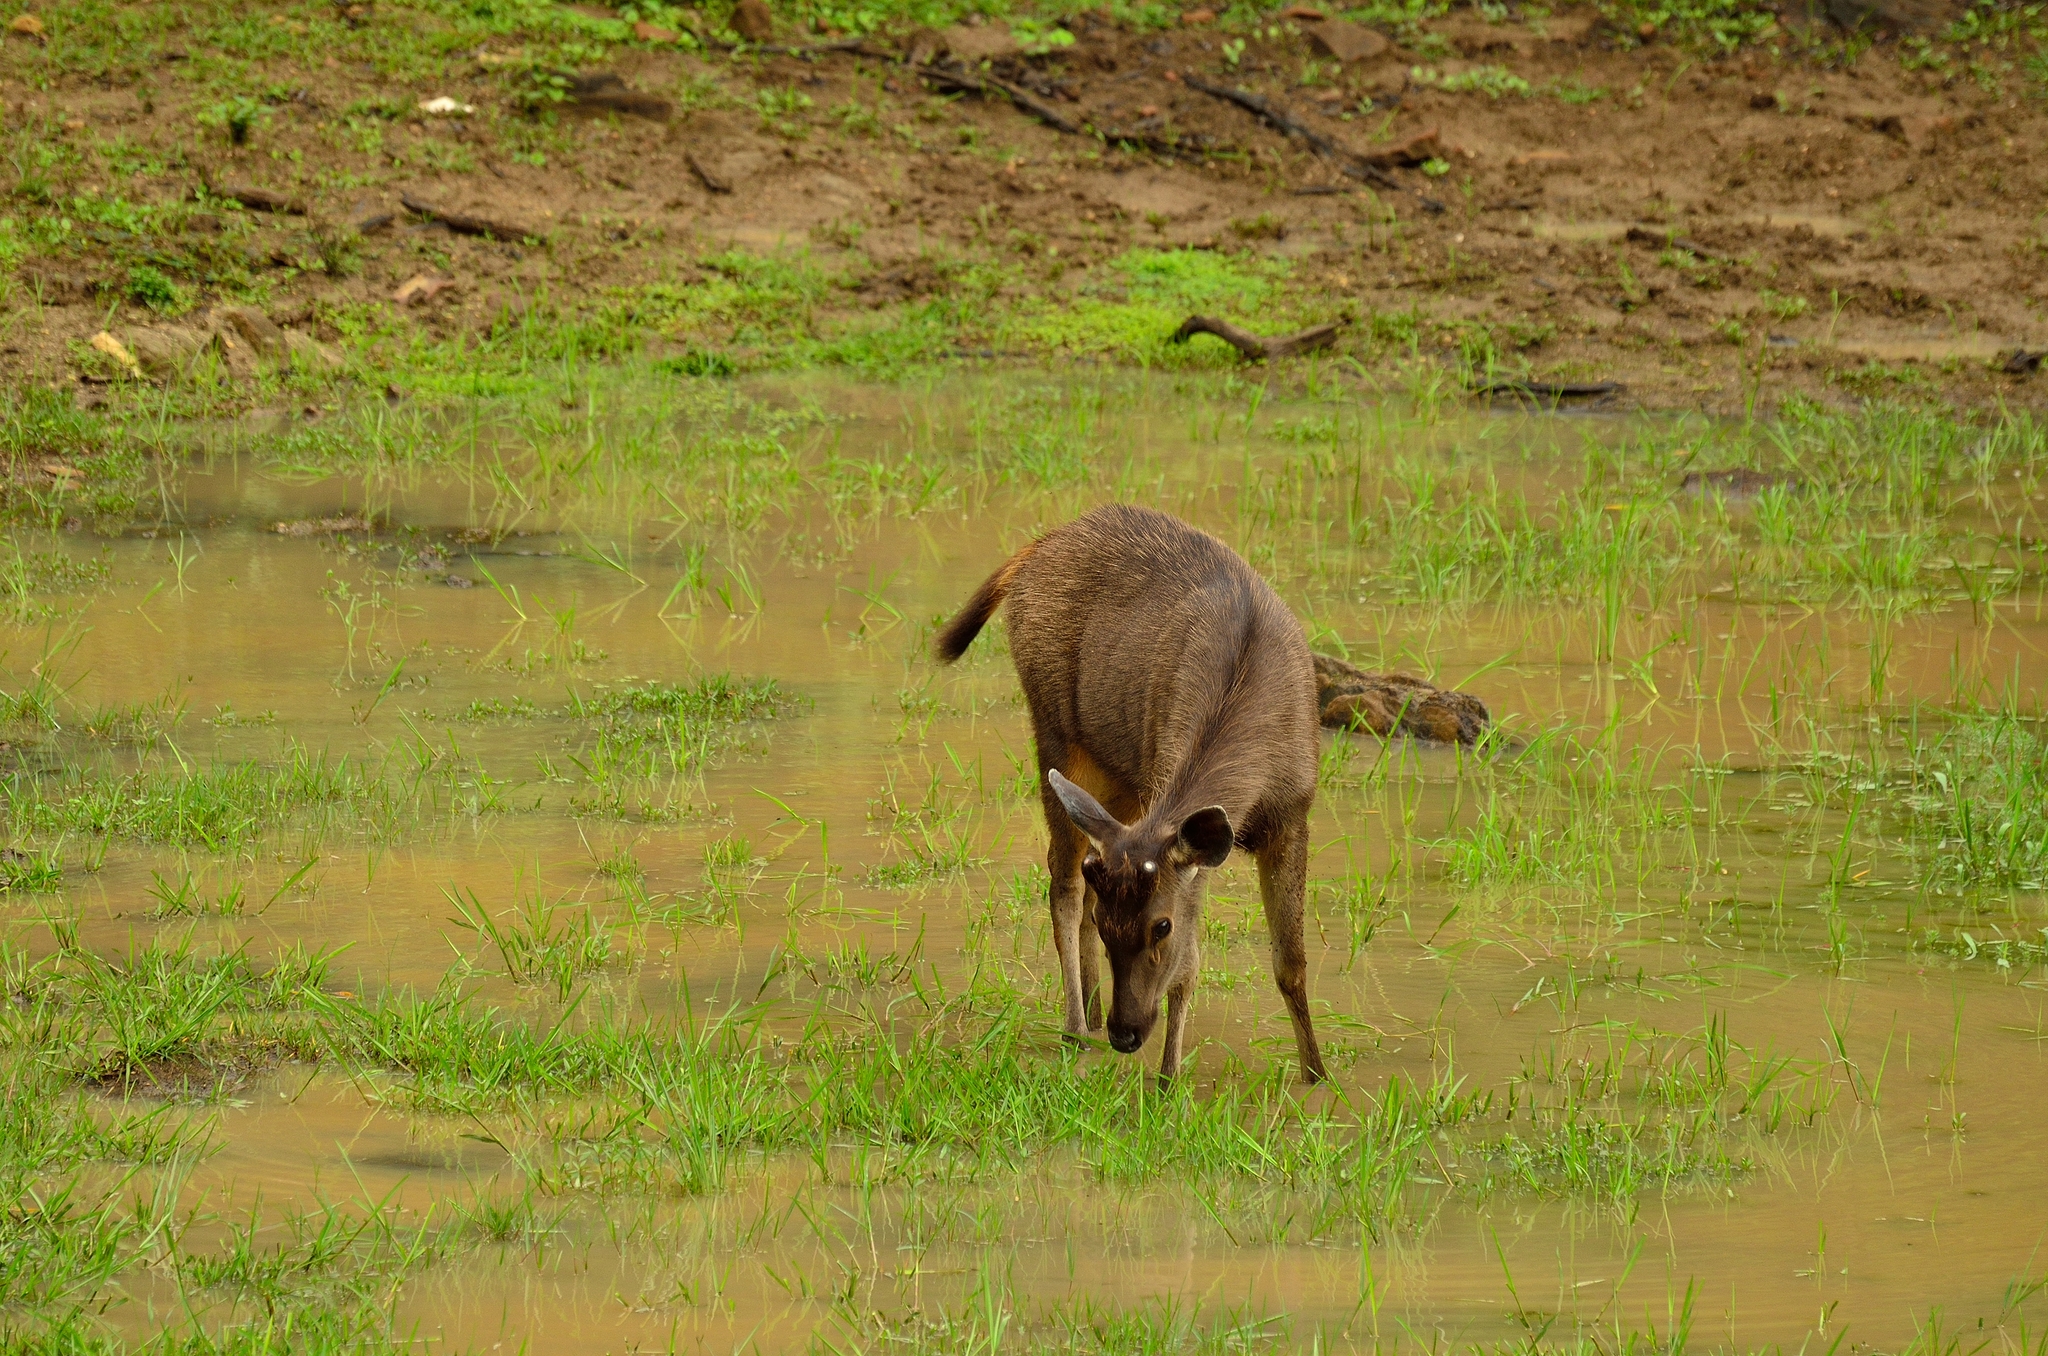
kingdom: Animalia
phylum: Chordata
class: Mammalia
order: Artiodactyla
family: Cervidae
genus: Rusa
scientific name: Rusa unicolor
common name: Sambar
